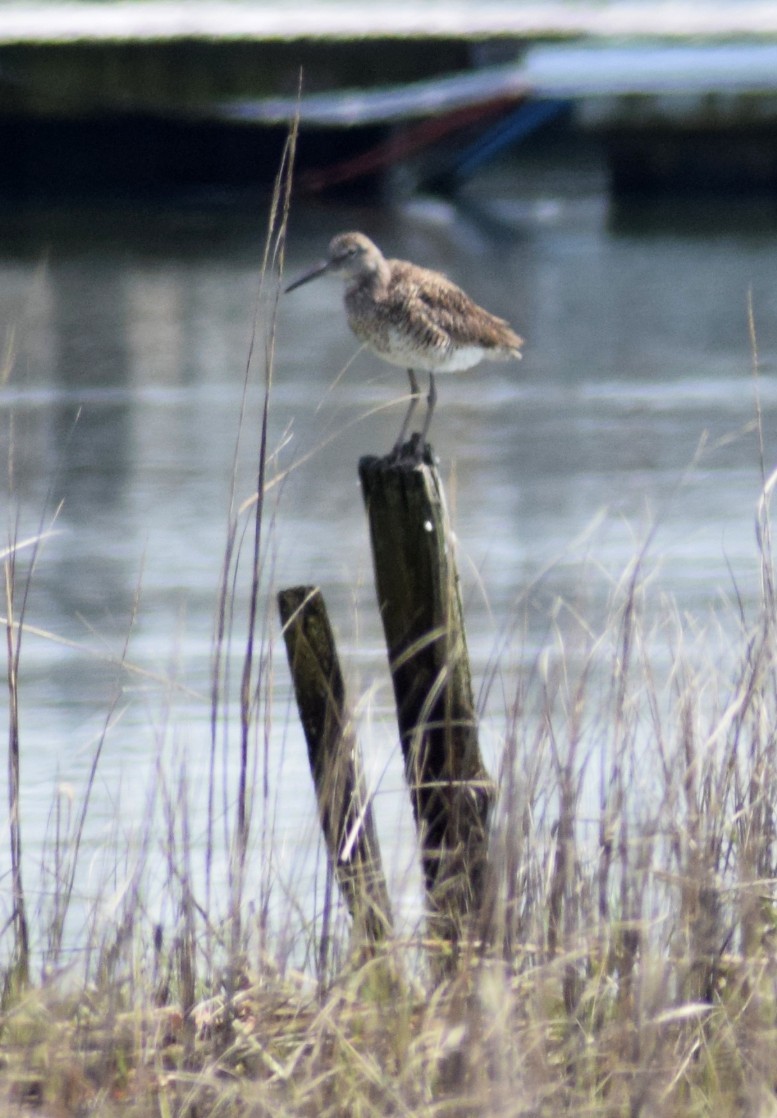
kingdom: Animalia
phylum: Chordata
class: Aves
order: Charadriiformes
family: Scolopacidae
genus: Tringa
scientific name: Tringa semipalmata
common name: Willet
